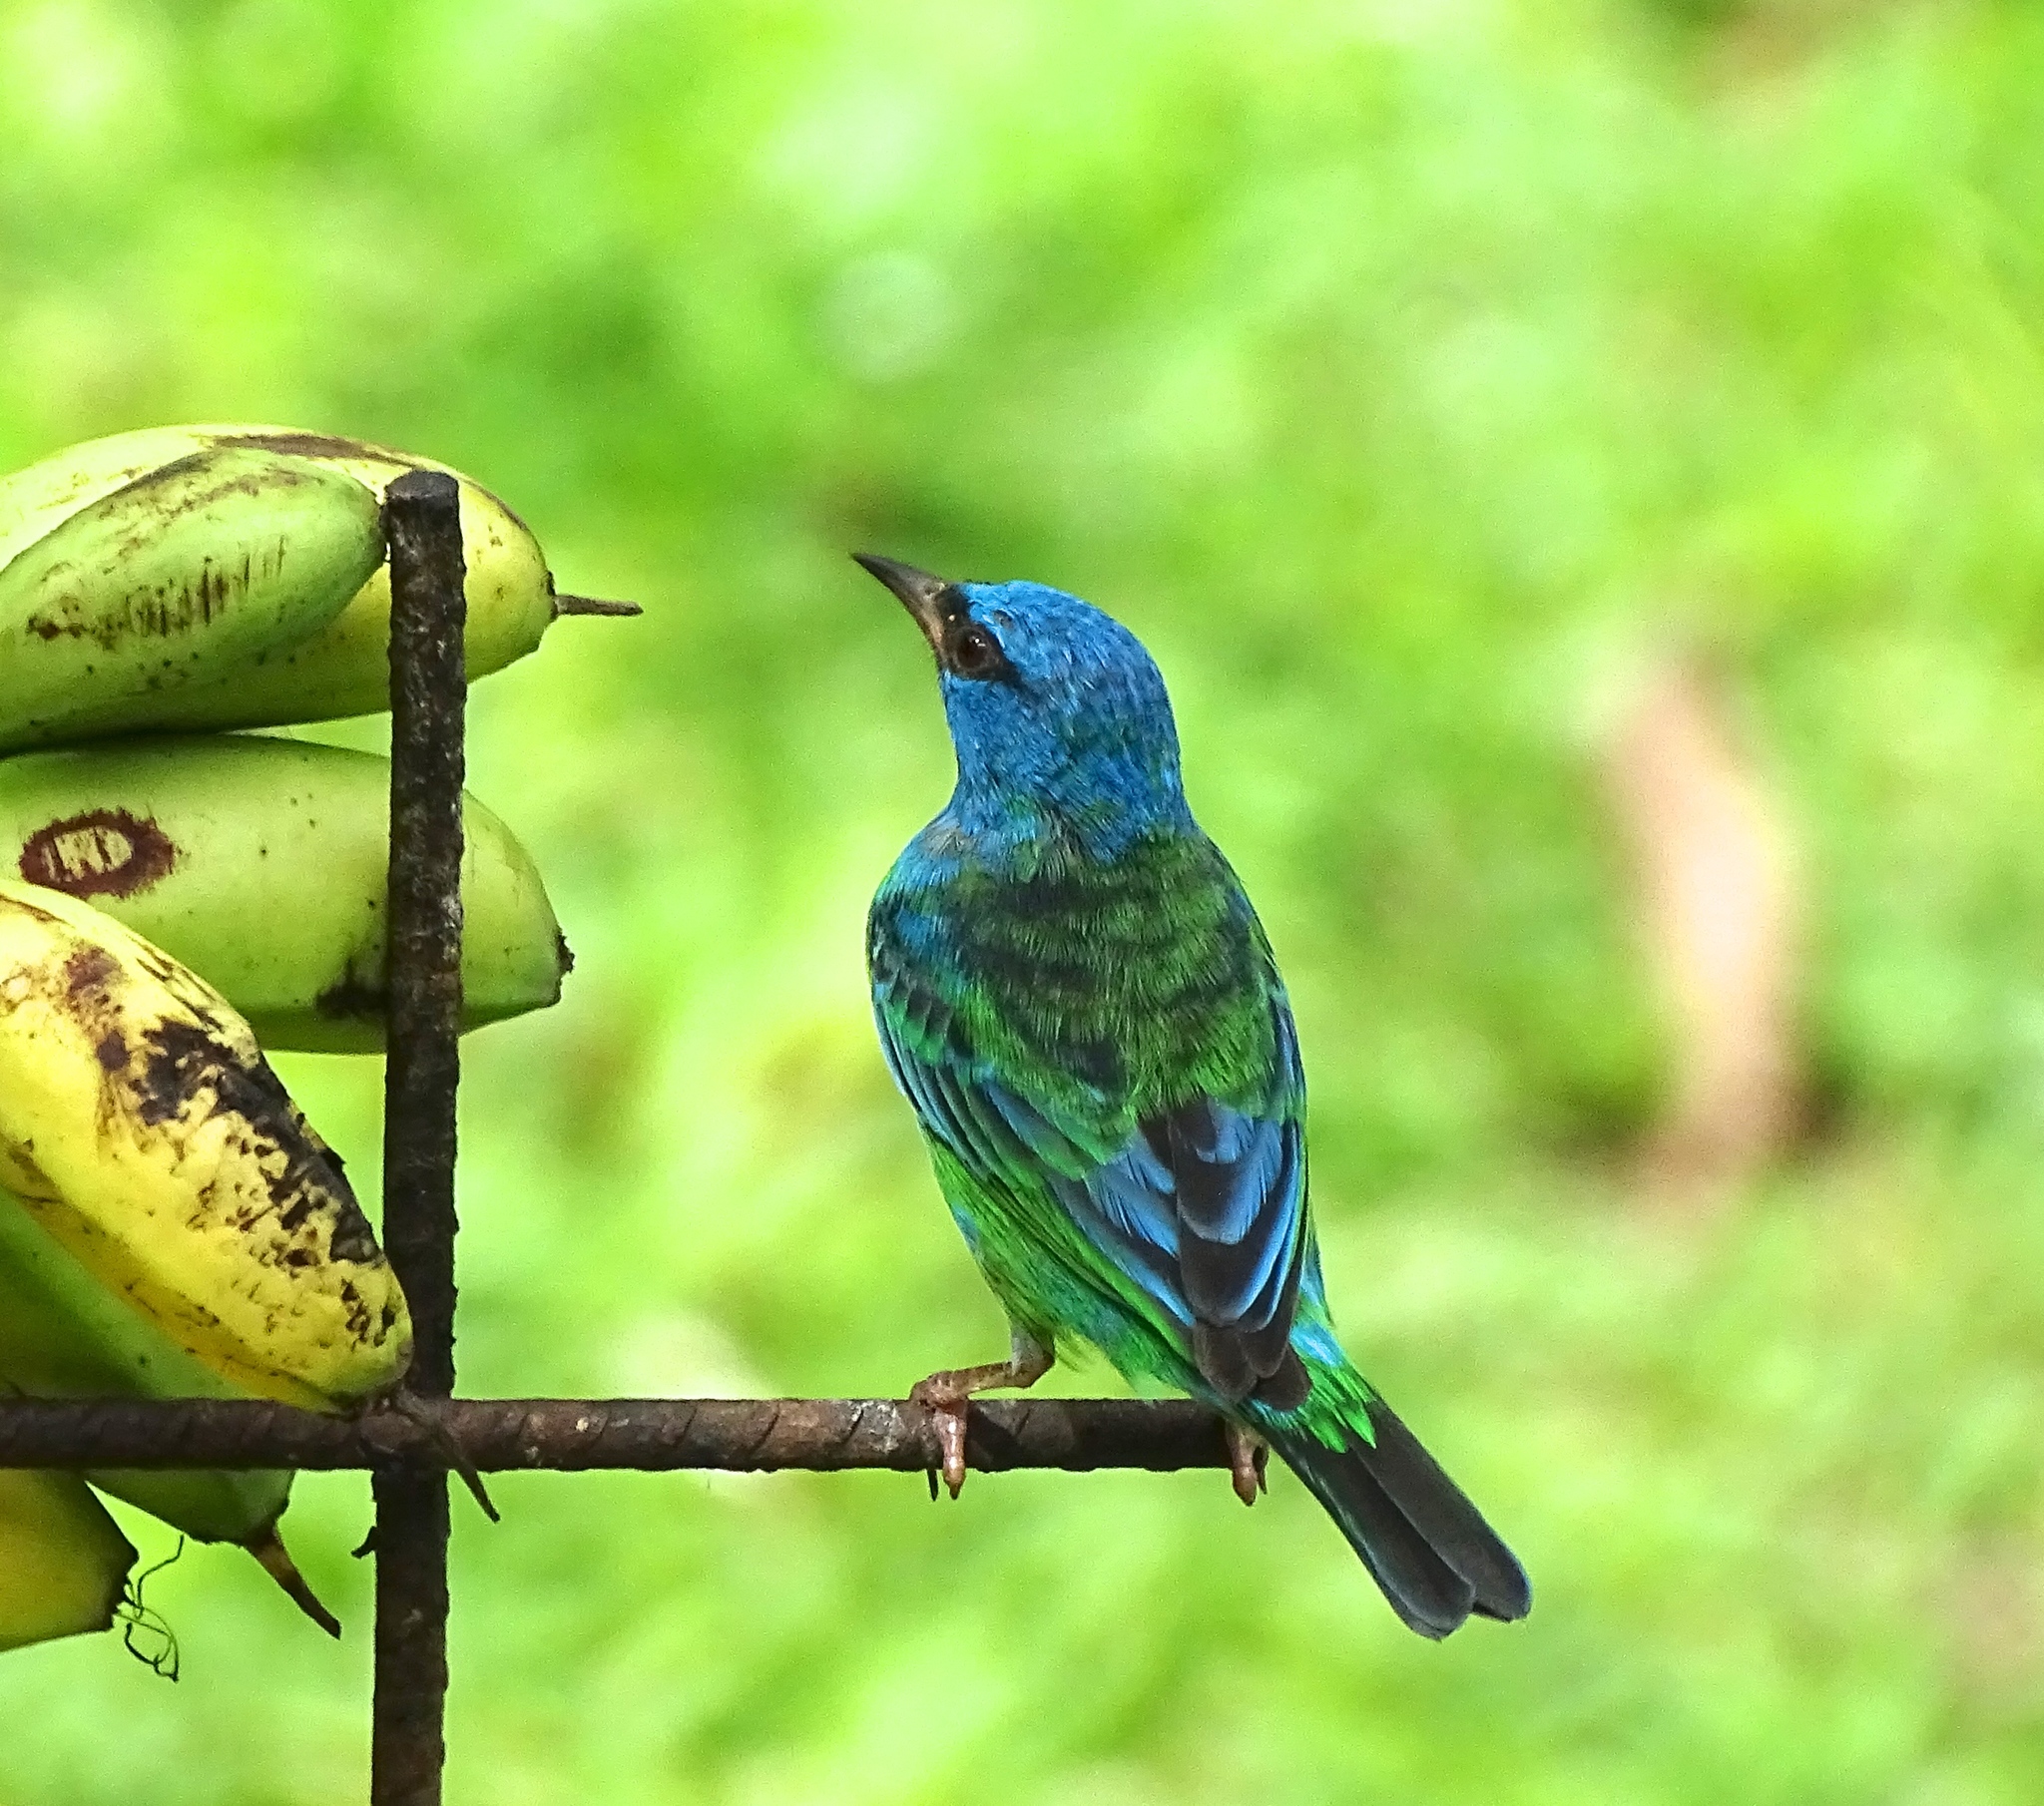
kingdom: Animalia
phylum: Chordata
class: Aves
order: Passeriformes
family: Thraupidae
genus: Dacnis
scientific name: Dacnis cayana
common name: Blue dacnis
